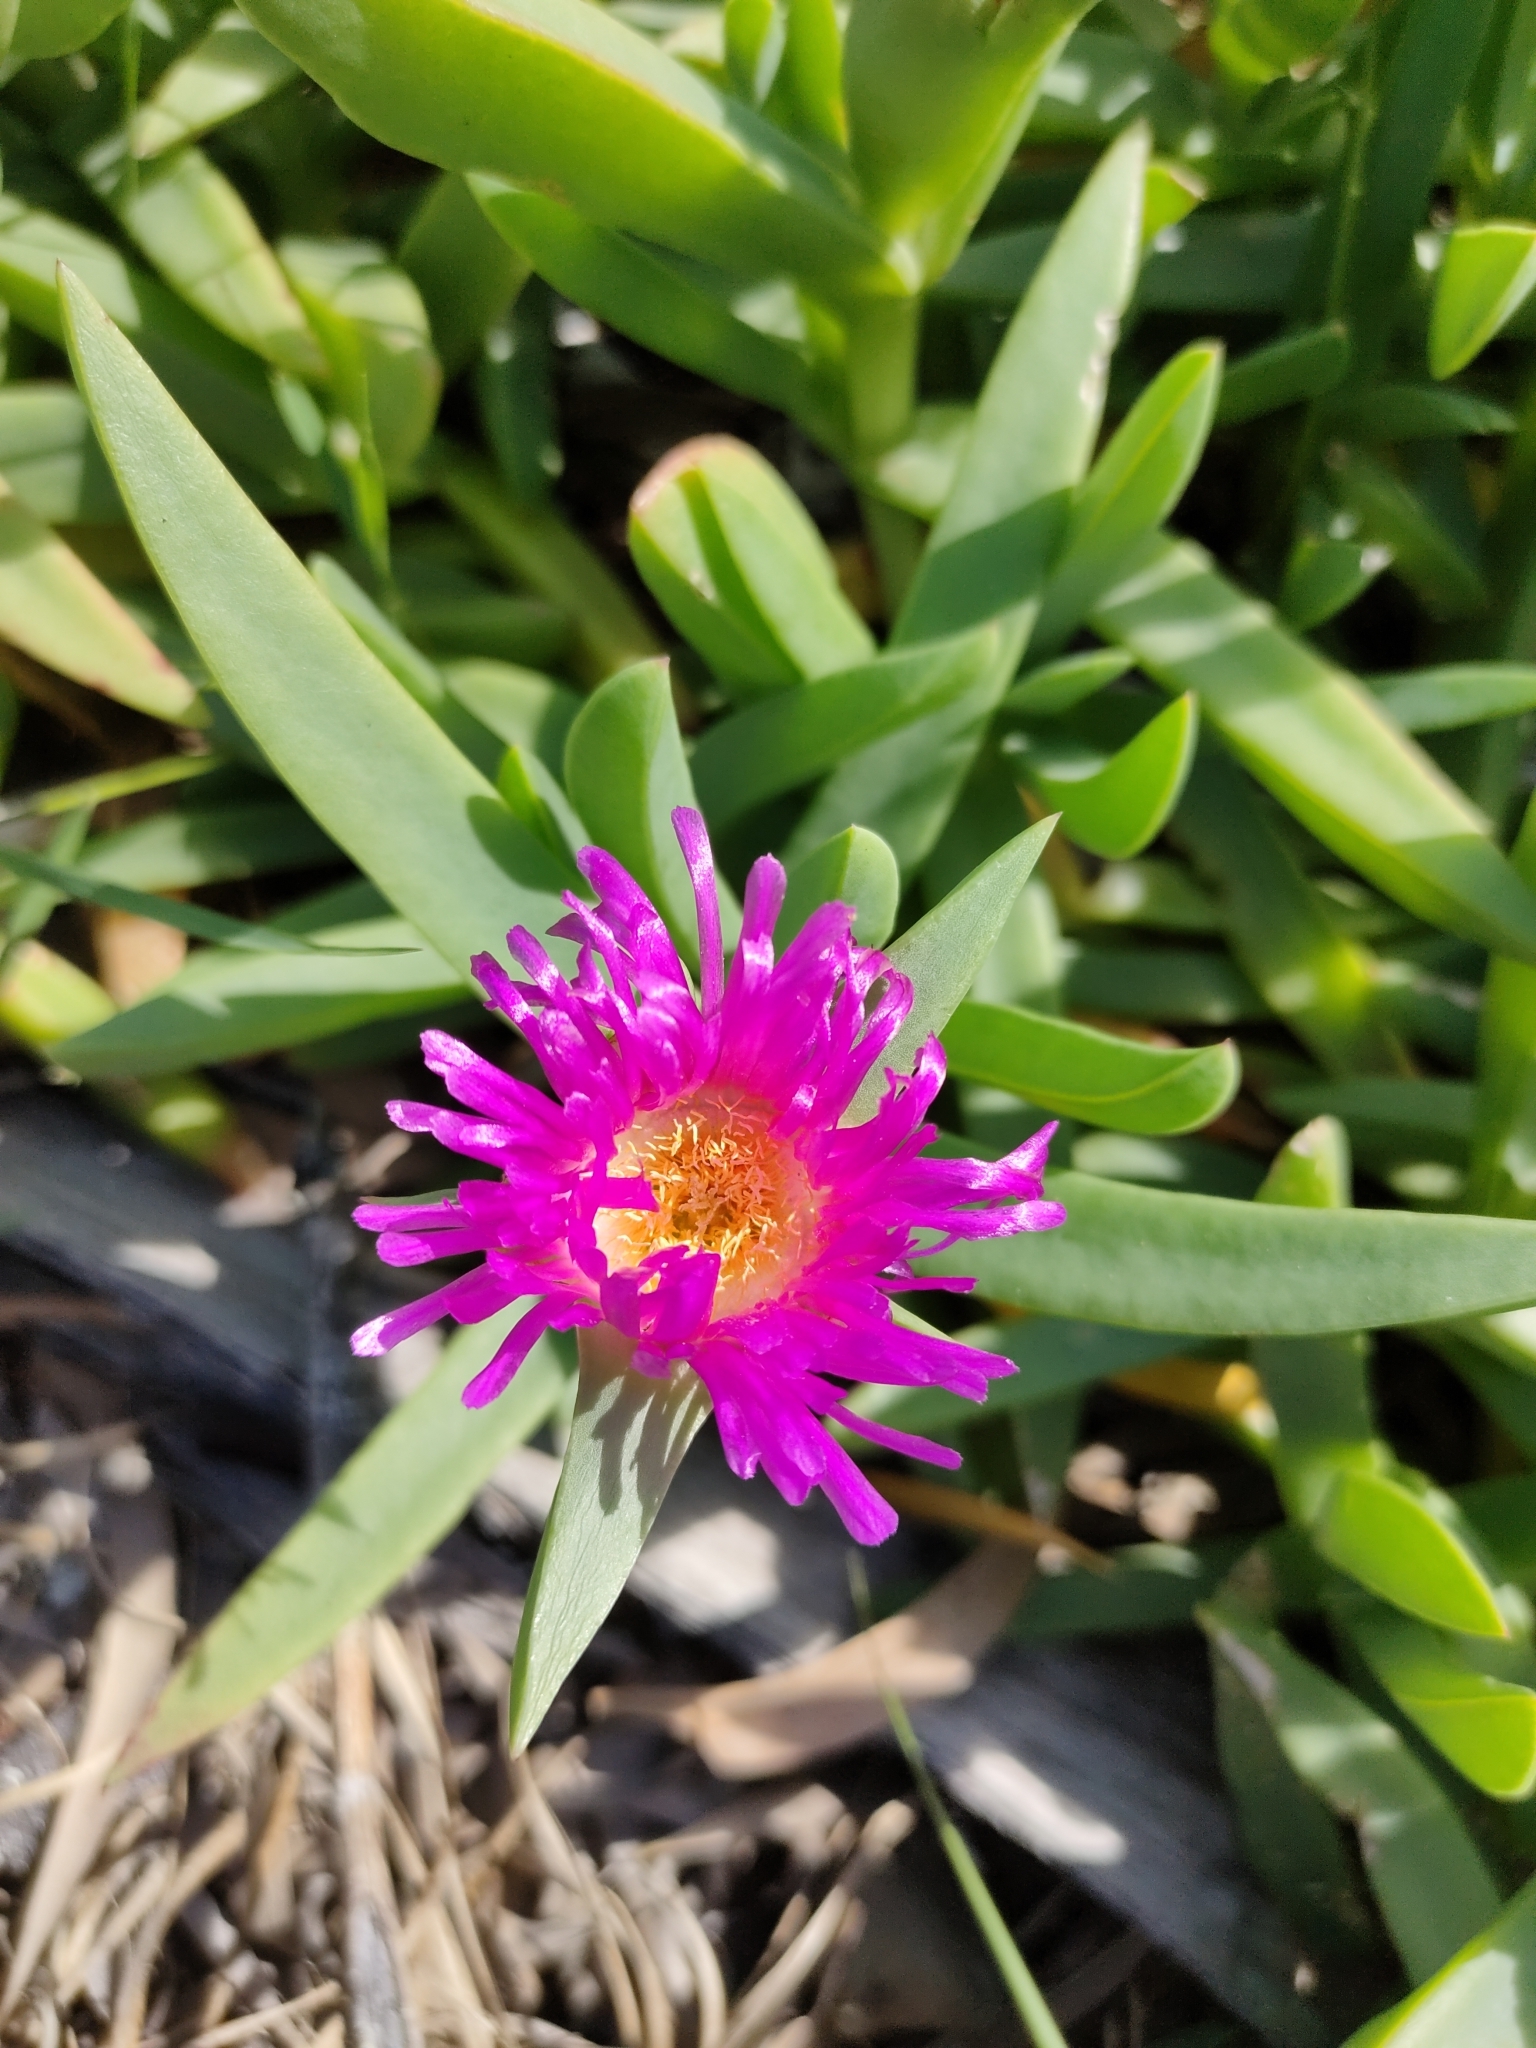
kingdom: Plantae
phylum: Tracheophyta
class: Magnoliopsida
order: Caryophyllales
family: Aizoaceae
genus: Carpobrotus
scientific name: Carpobrotus glaucescens
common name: Angular sea-fig
